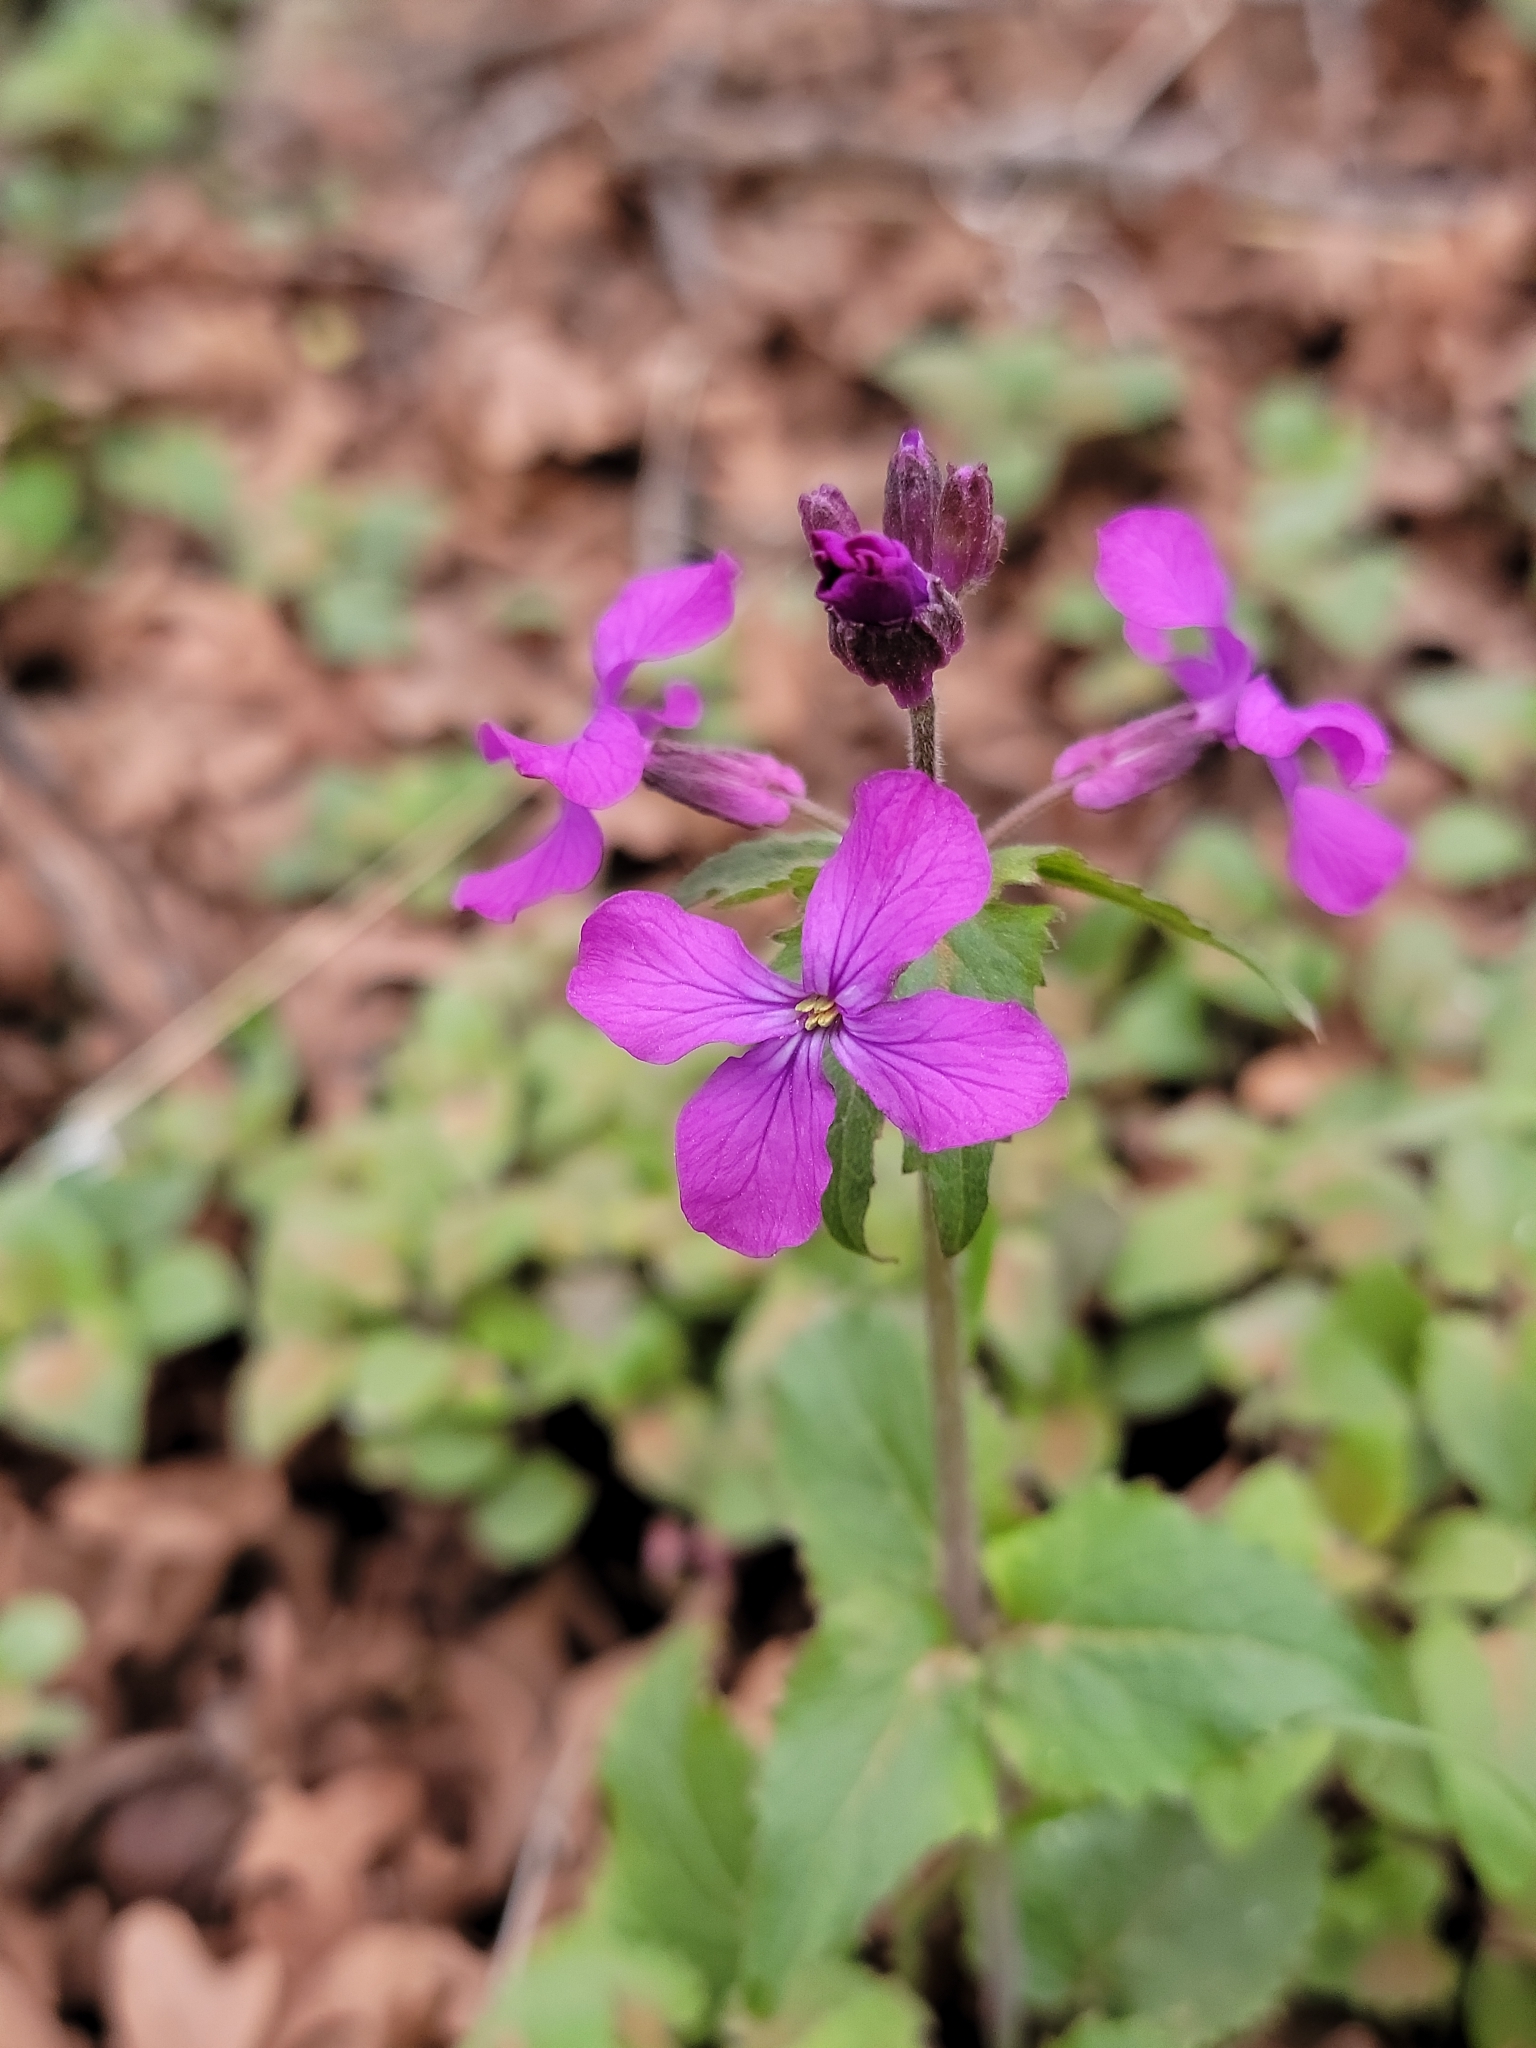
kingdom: Plantae
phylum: Tracheophyta
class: Magnoliopsida
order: Brassicales
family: Brassicaceae
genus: Lunaria
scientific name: Lunaria annua
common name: Honesty
